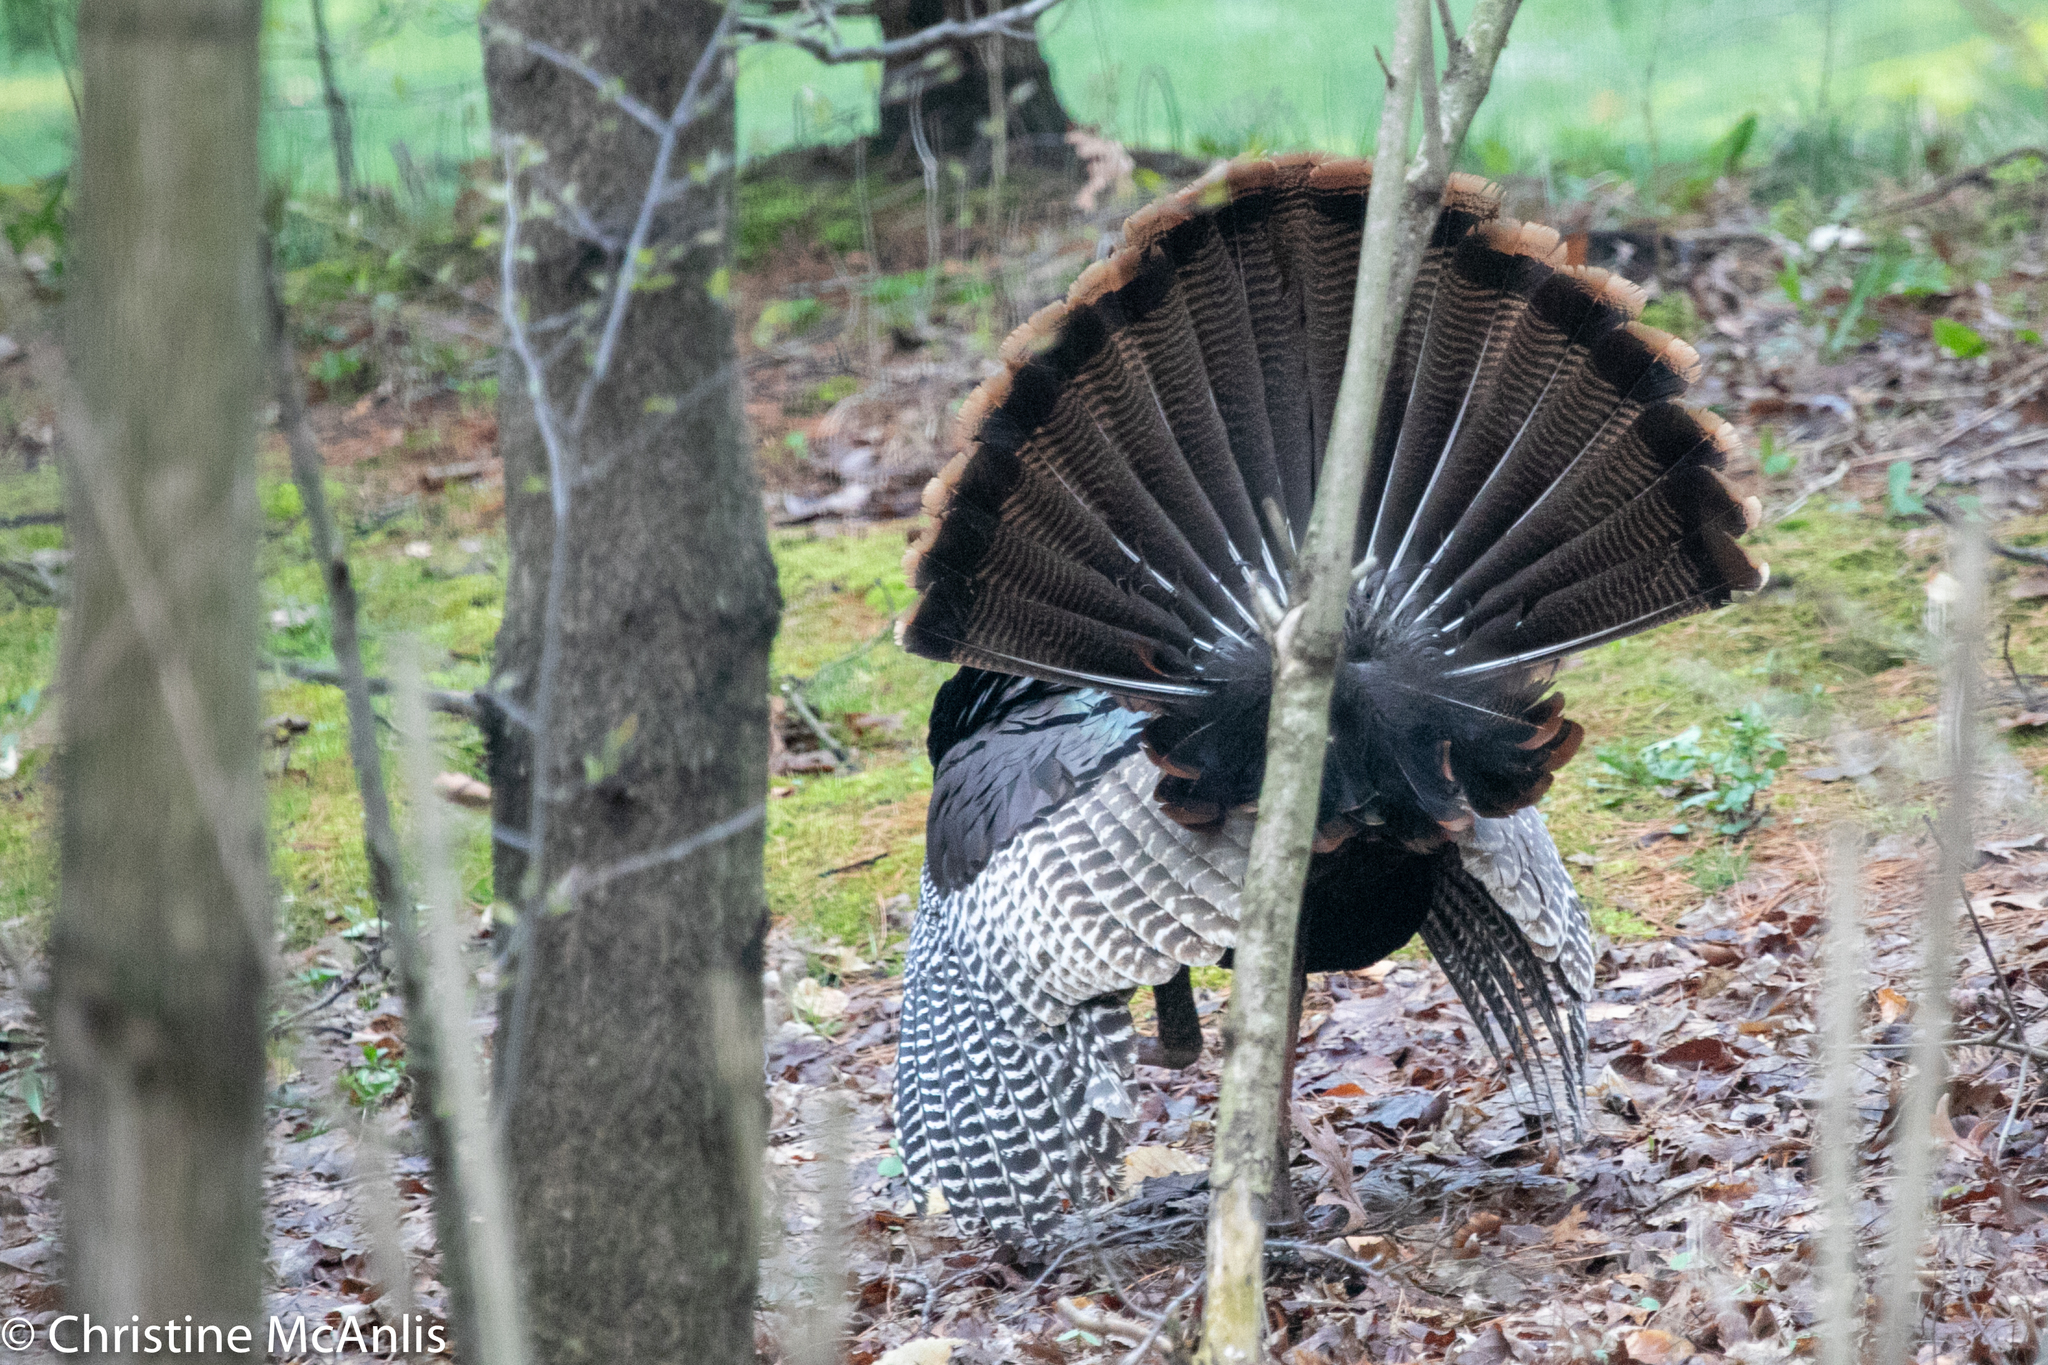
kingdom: Animalia
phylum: Chordata
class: Aves
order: Galliformes
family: Phasianidae
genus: Meleagris
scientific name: Meleagris gallopavo
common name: Wild turkey
